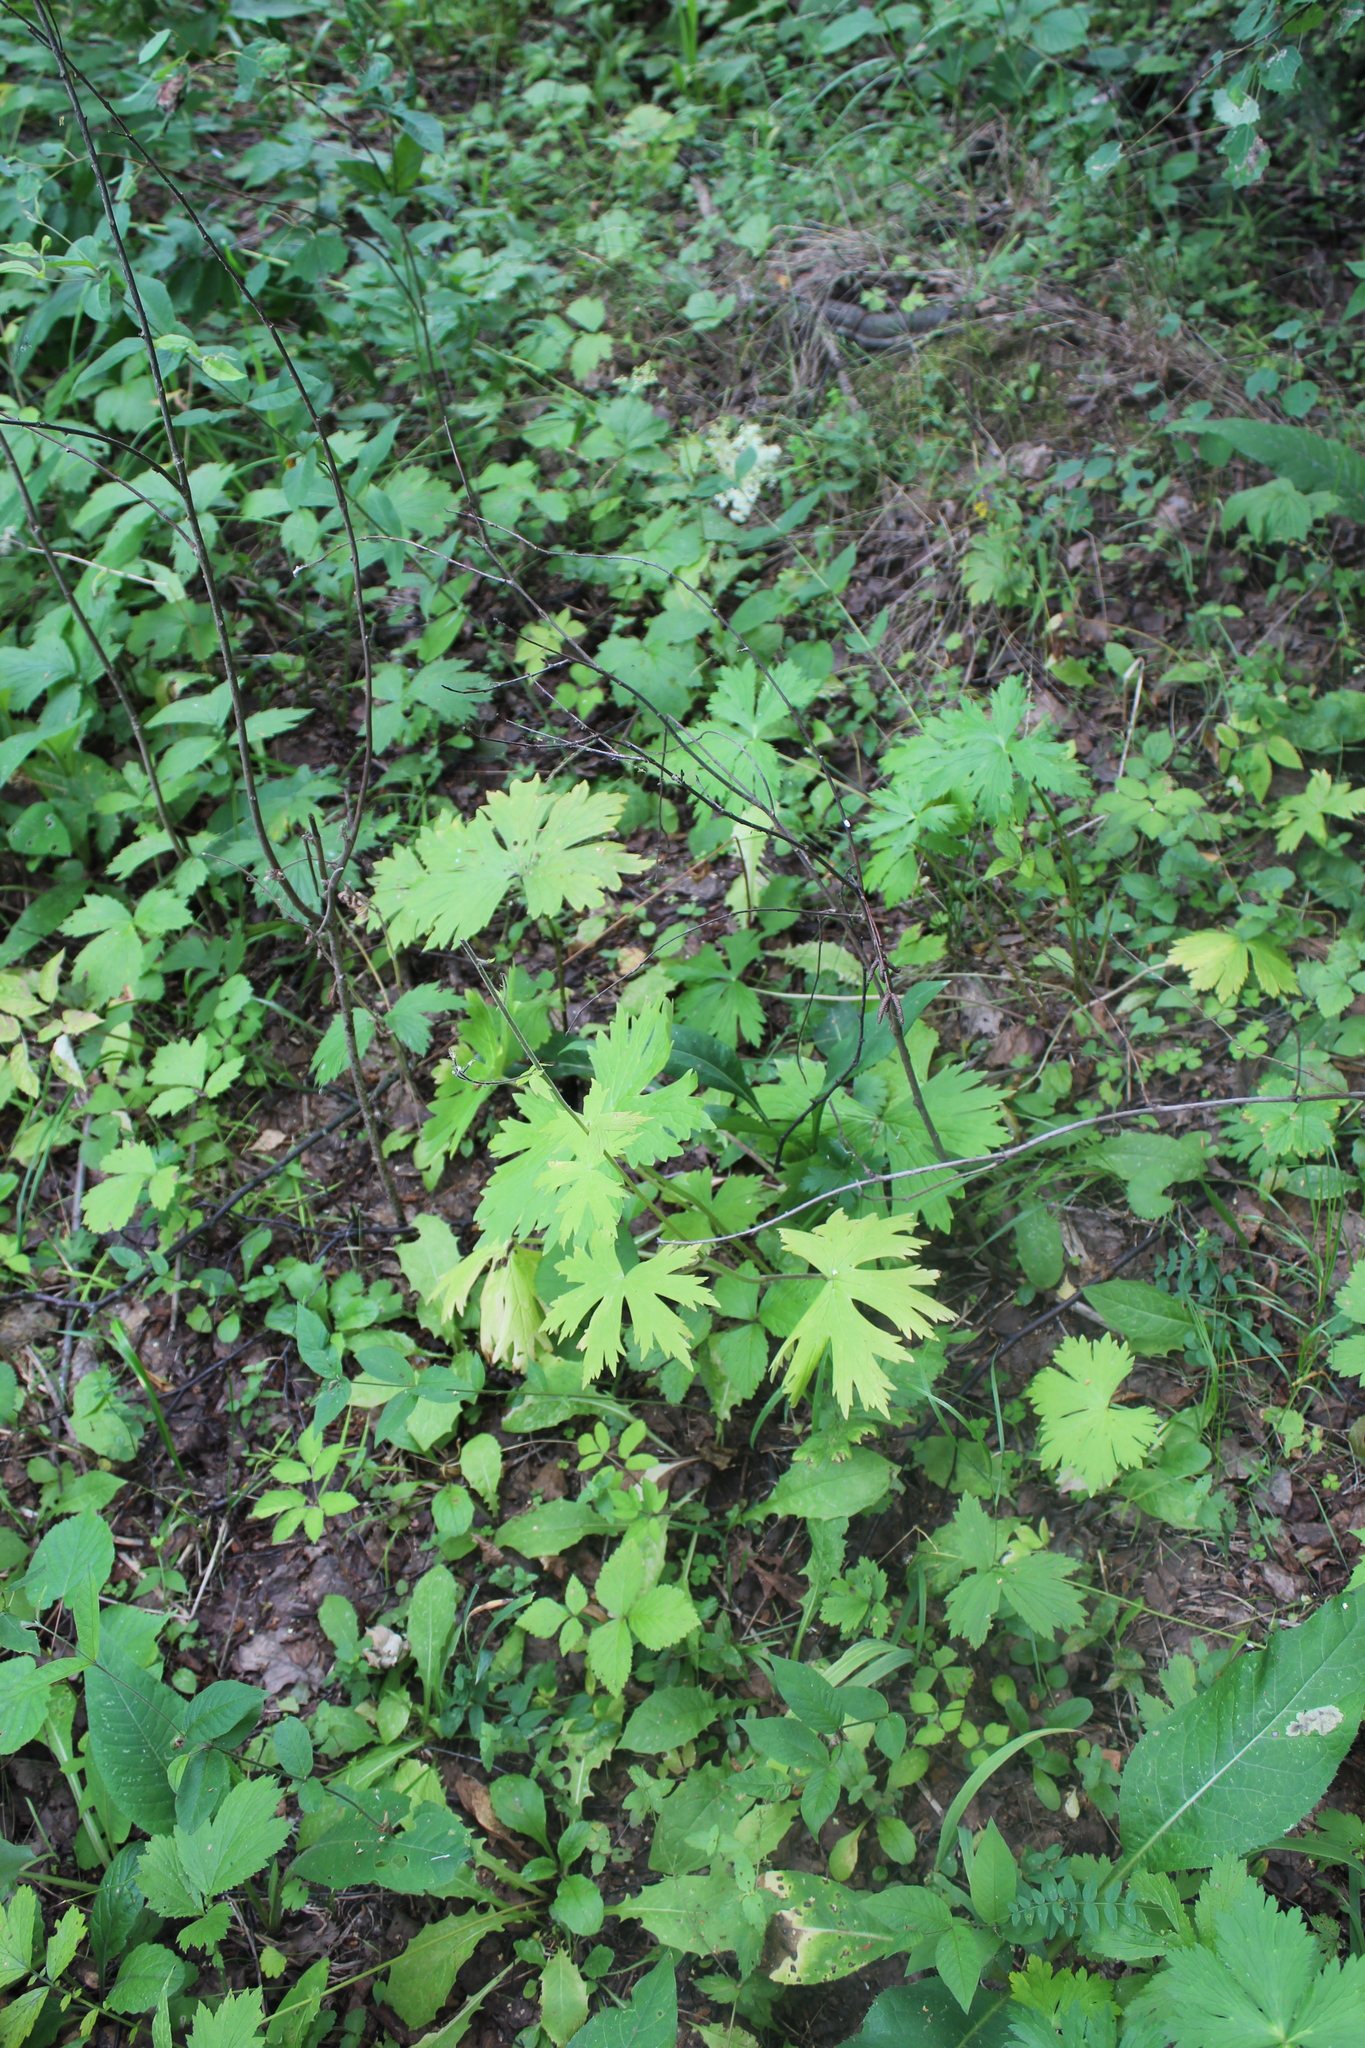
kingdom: Plantae
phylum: Tracheophyta
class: Magnoliopsida
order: Ranunculales
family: Ranunculaceae
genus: Aconitum
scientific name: Aconitum septentrionale
